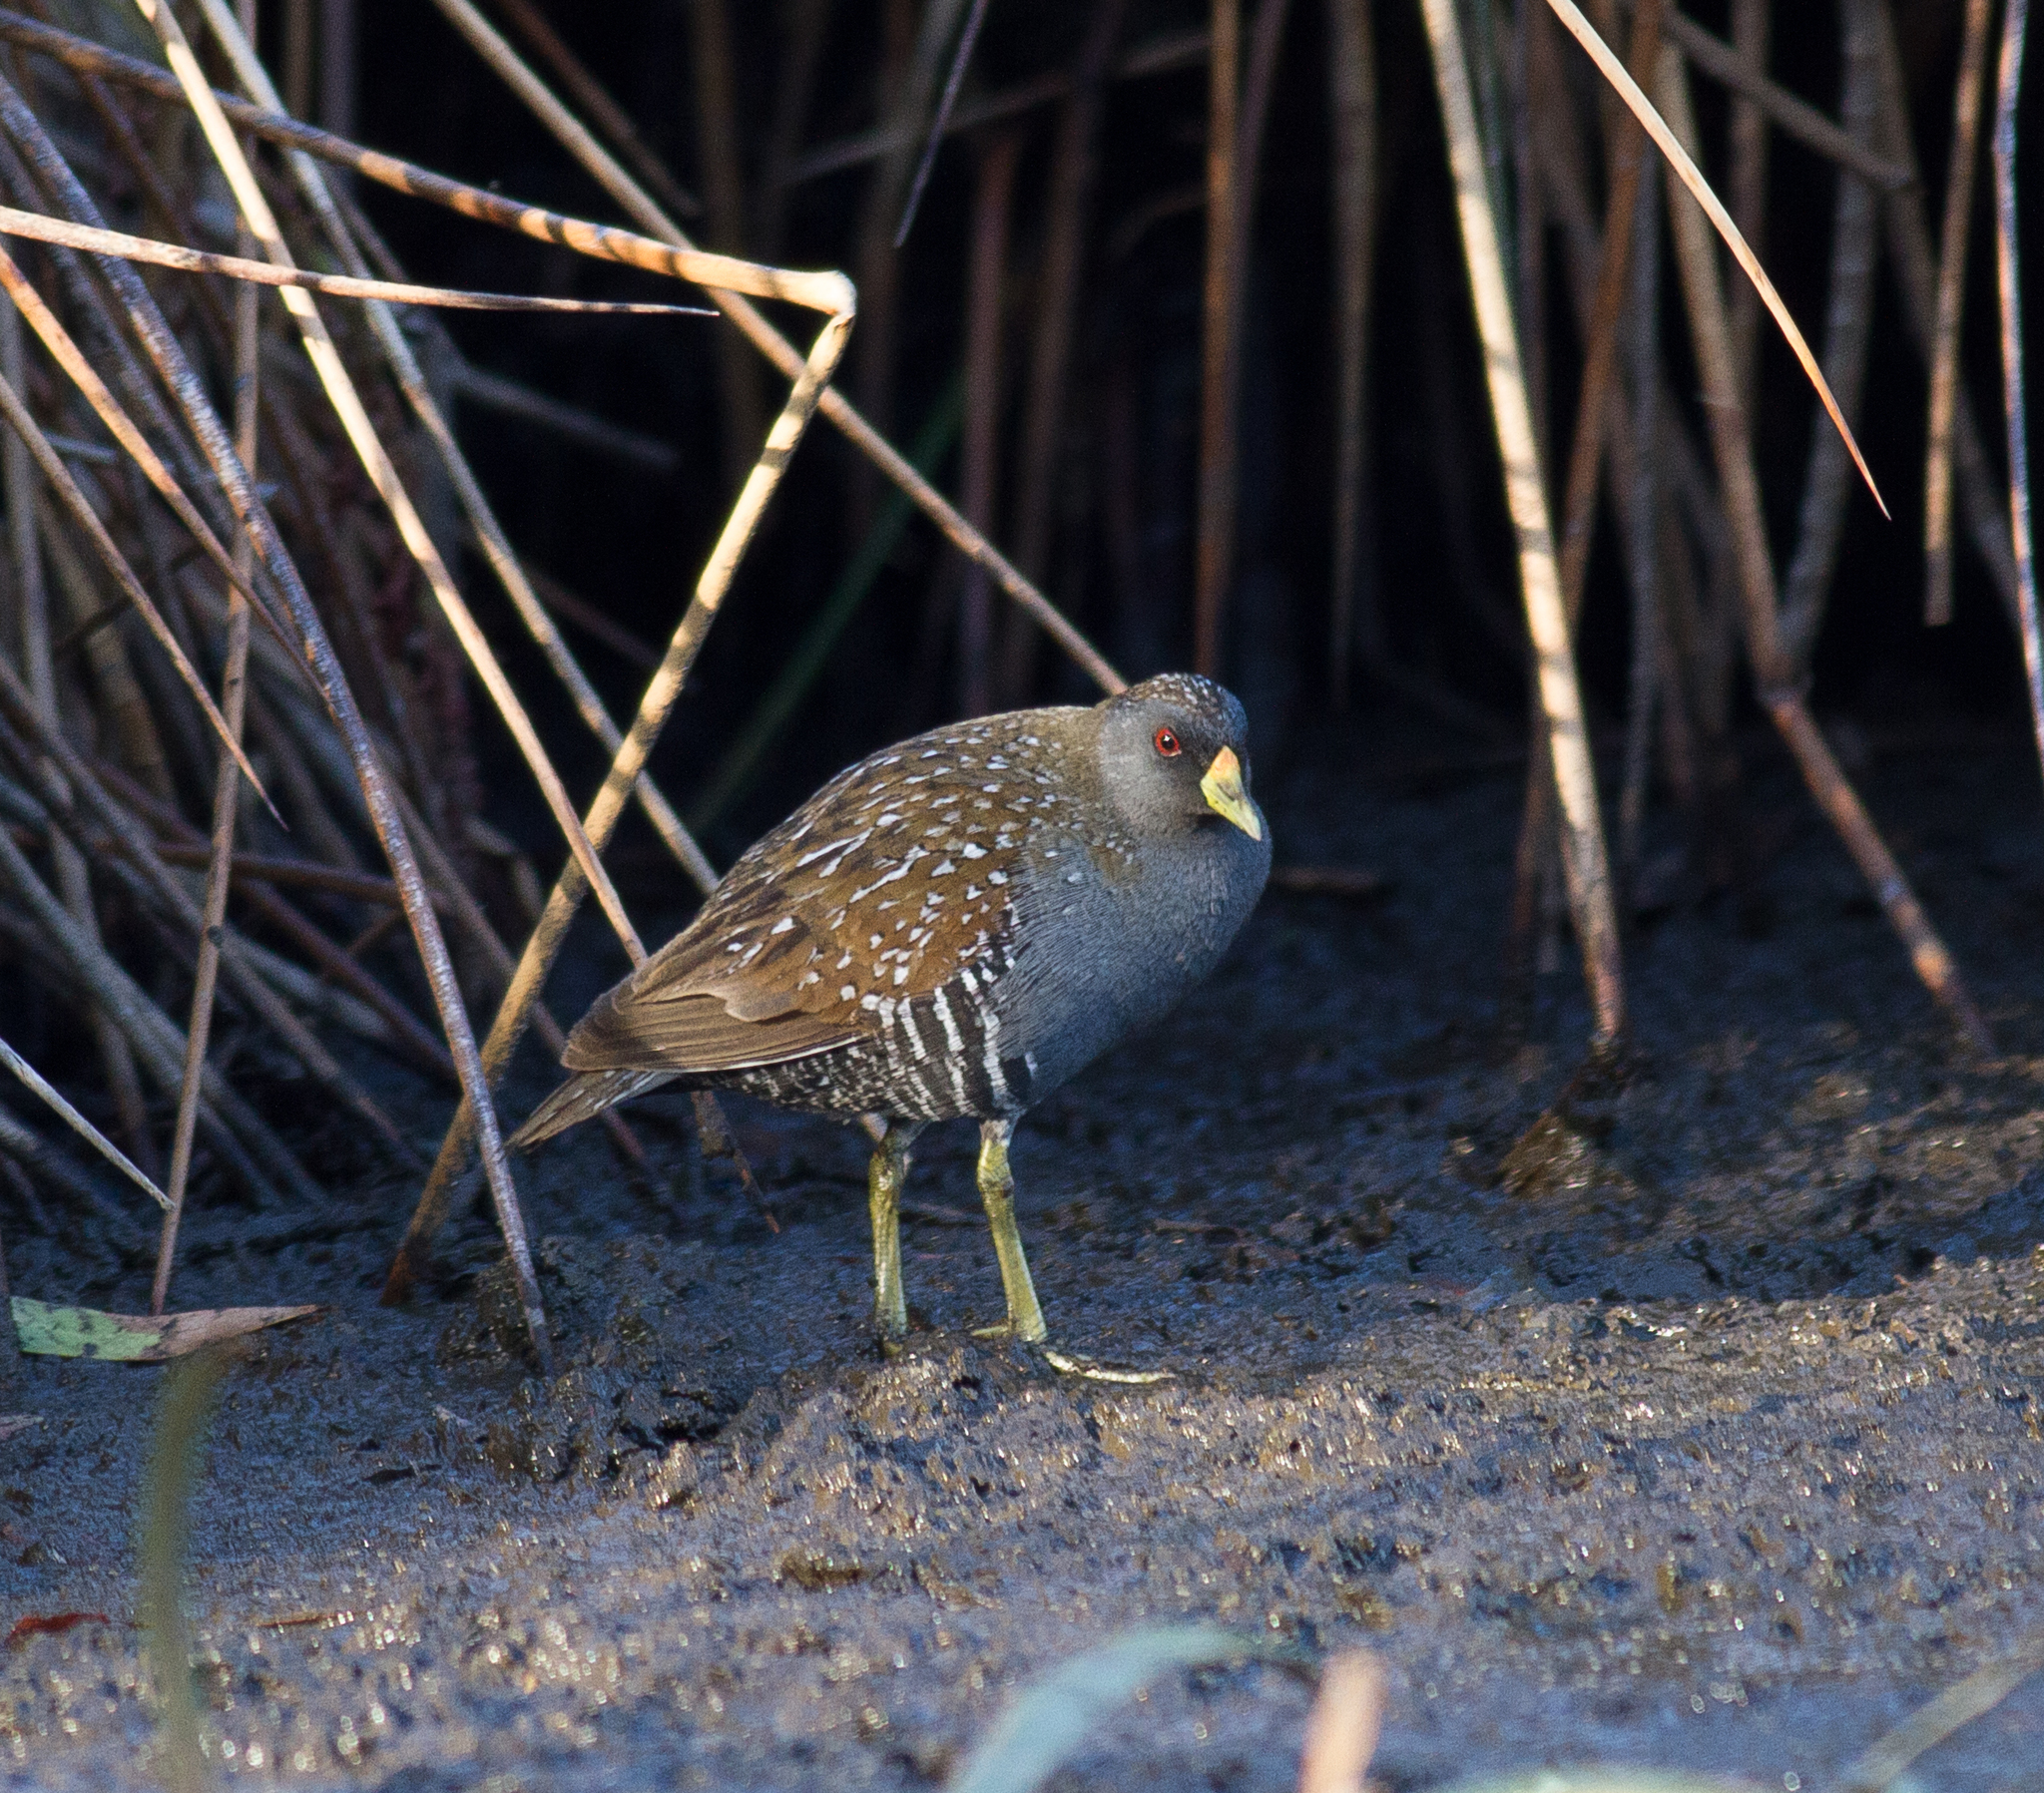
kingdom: Animalia
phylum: Chordata
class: Aves
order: Gruiformes
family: Rallidae
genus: Porzana
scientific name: Porzana fluminea
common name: Australian crake
